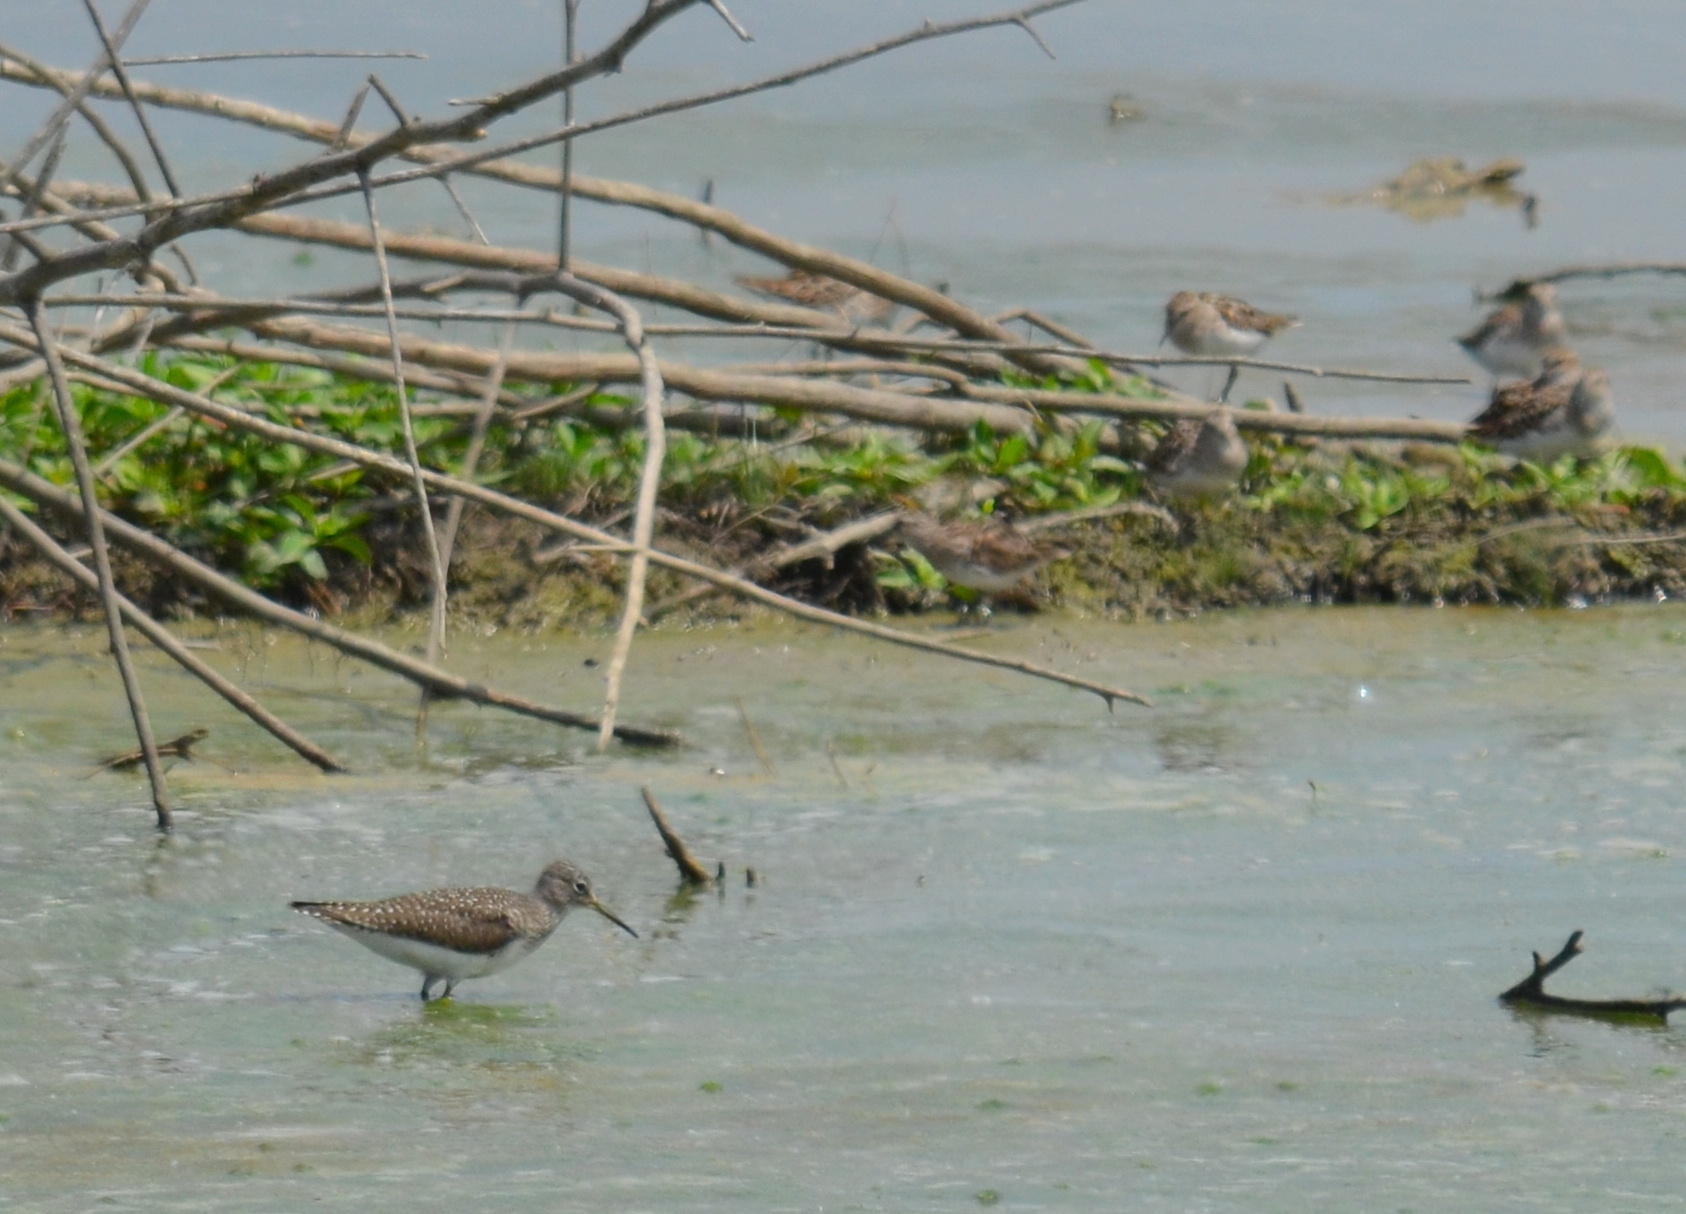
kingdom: Animalia
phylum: Chordata
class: Aves
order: Charadriiformes
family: Scolopacidae
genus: Tringa
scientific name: Tringa solitaria
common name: Solitary sandpiper
